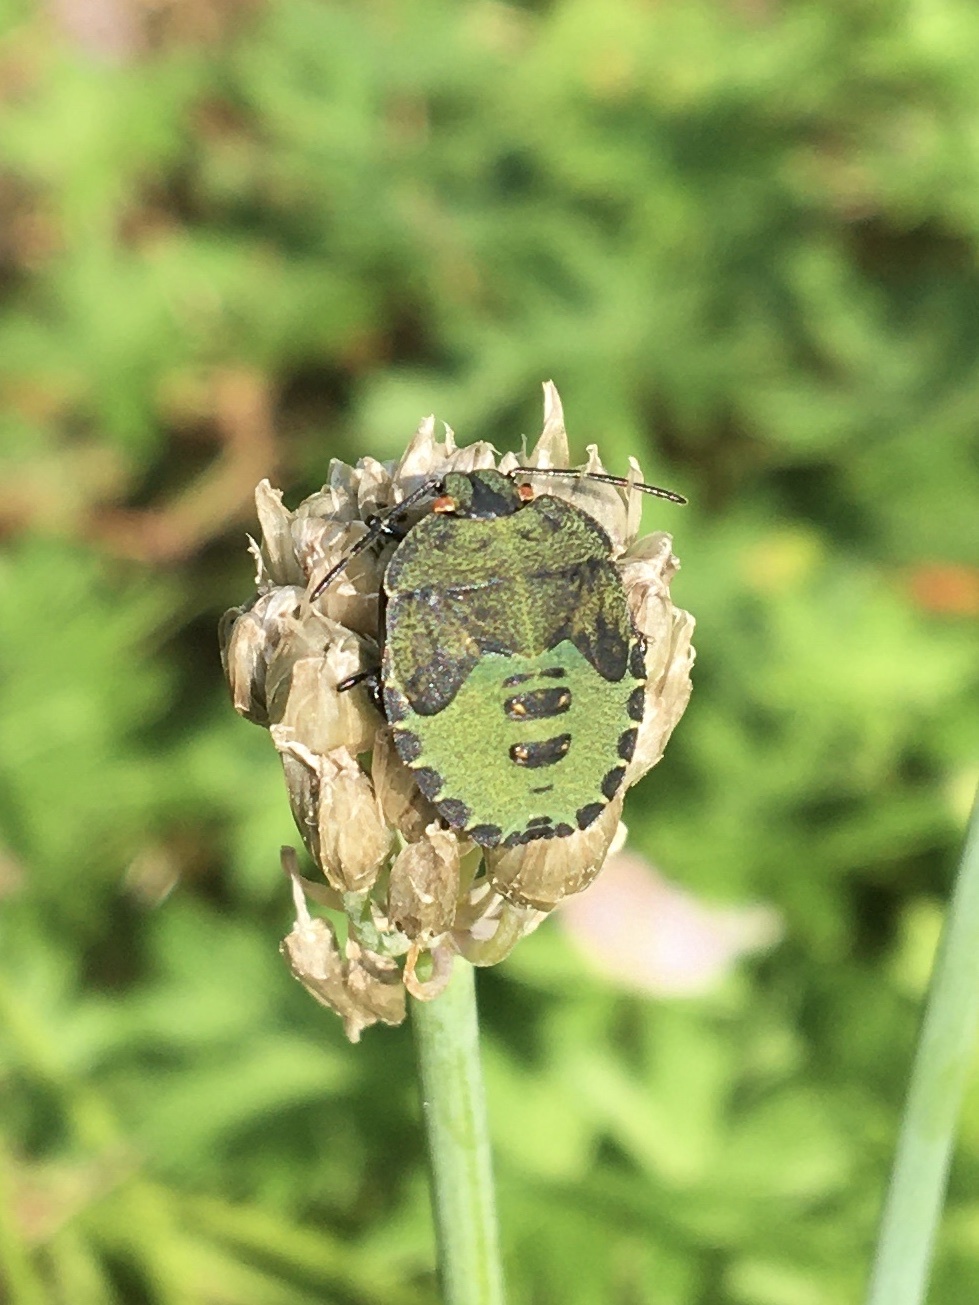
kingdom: Animalia
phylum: Arthropoda
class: Insecta
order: Hemiptera
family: Pentatomidae
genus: Palomena
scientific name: Palomena prasina
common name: Green shieldbug
